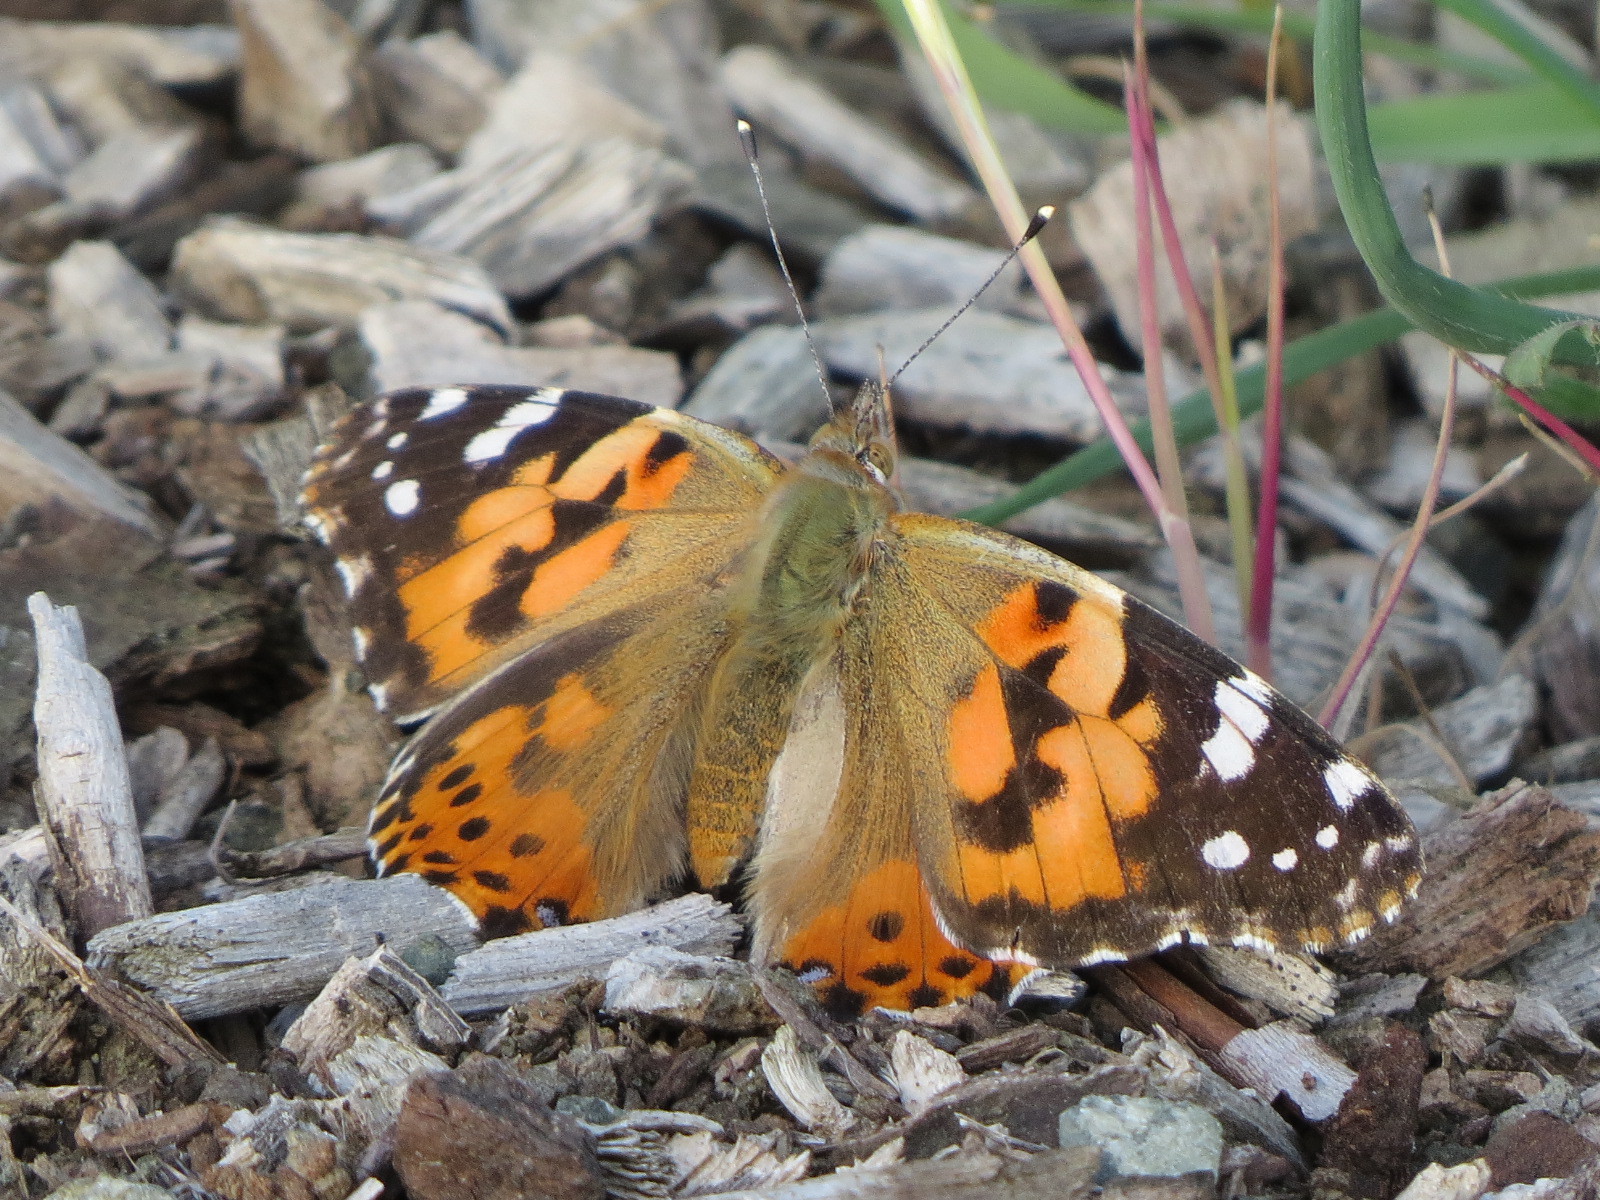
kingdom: Animalia
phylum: Arthropoda
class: Insecta
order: Lepidoptera
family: Nymphalidae
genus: Vanessa
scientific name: Vanessa cardui
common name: Painted lady
